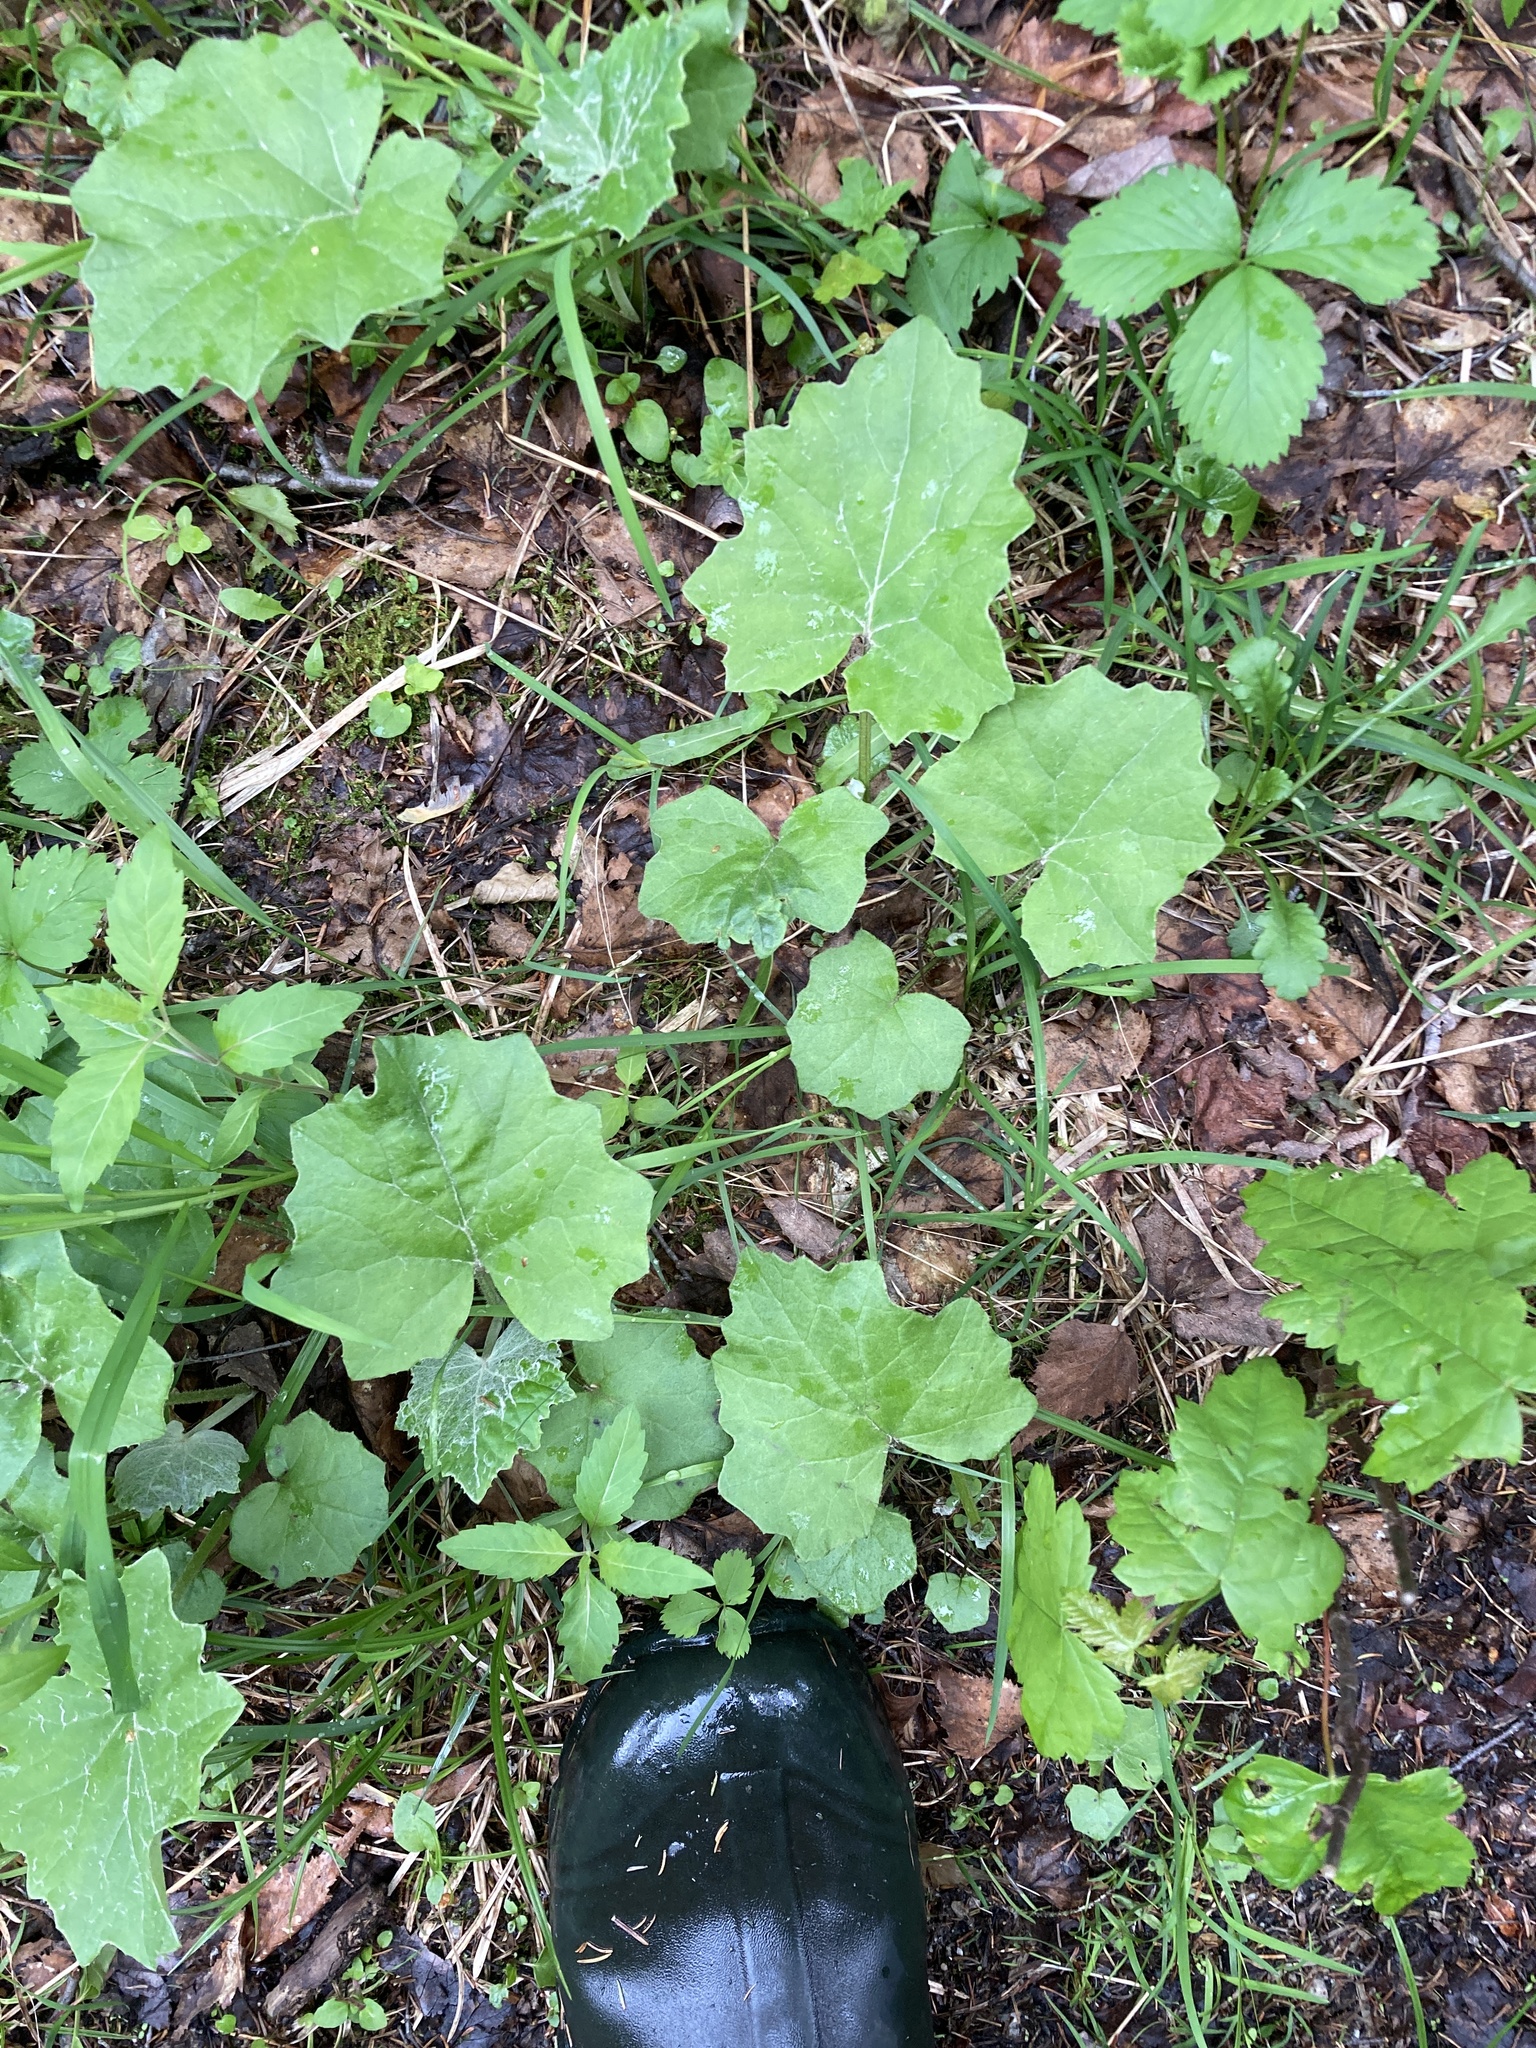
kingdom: Plantae
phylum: Tracheophyta
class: Magnoliopsida
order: Asterales
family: Asteraceae
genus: Tussilago
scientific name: Tussilago farfara
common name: Coltsfoot
